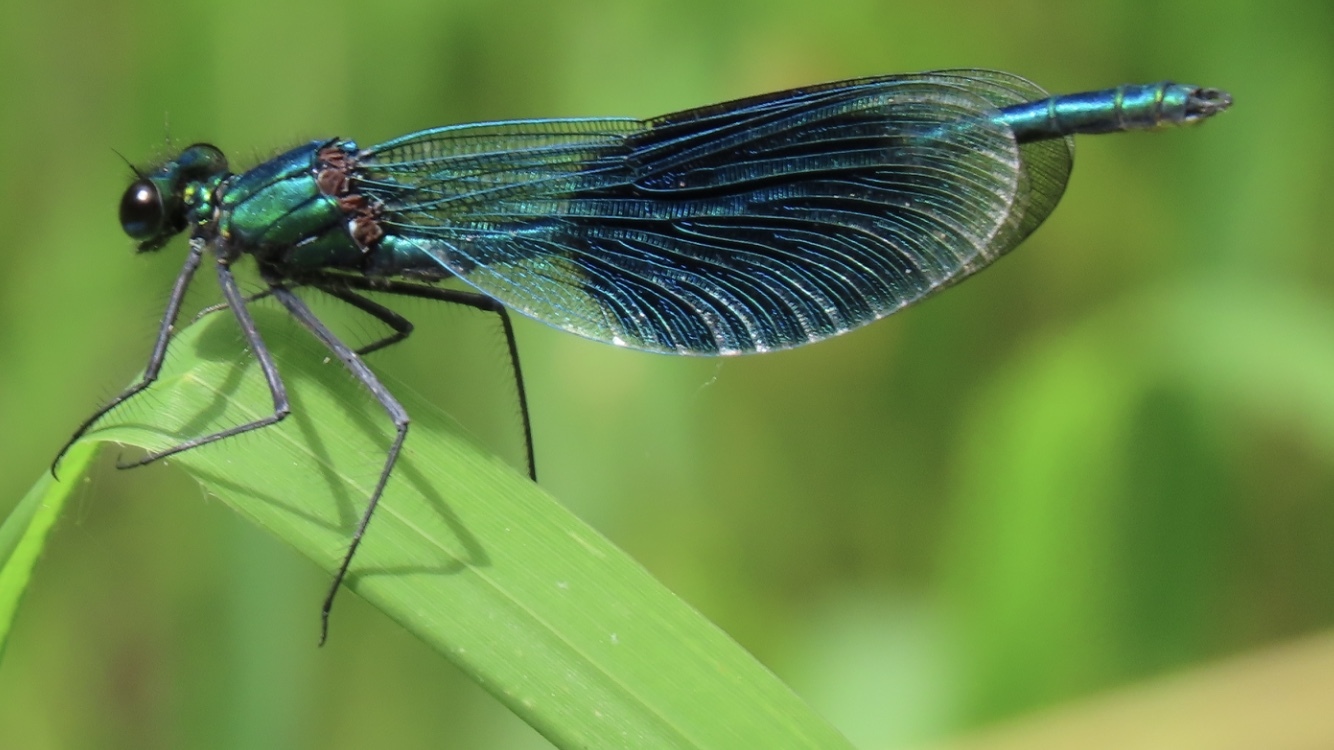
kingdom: Animalia
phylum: Arthropoda
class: Insecta
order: Odonata
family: Calopterygidae
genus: Calopteryx
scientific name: Calopteryx splendens
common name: Banded demoiselle
